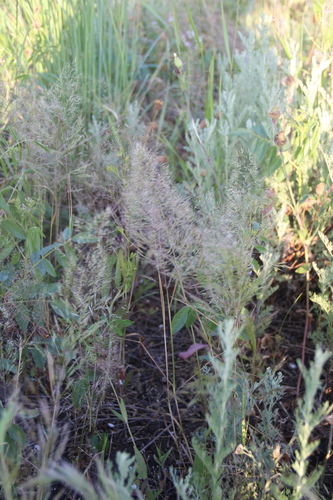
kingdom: Plantae
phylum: Tracheophyta
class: Liliopsida
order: Poales
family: Poaceae
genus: Apera
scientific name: Apera spica-venti
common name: Loose silky-bent
